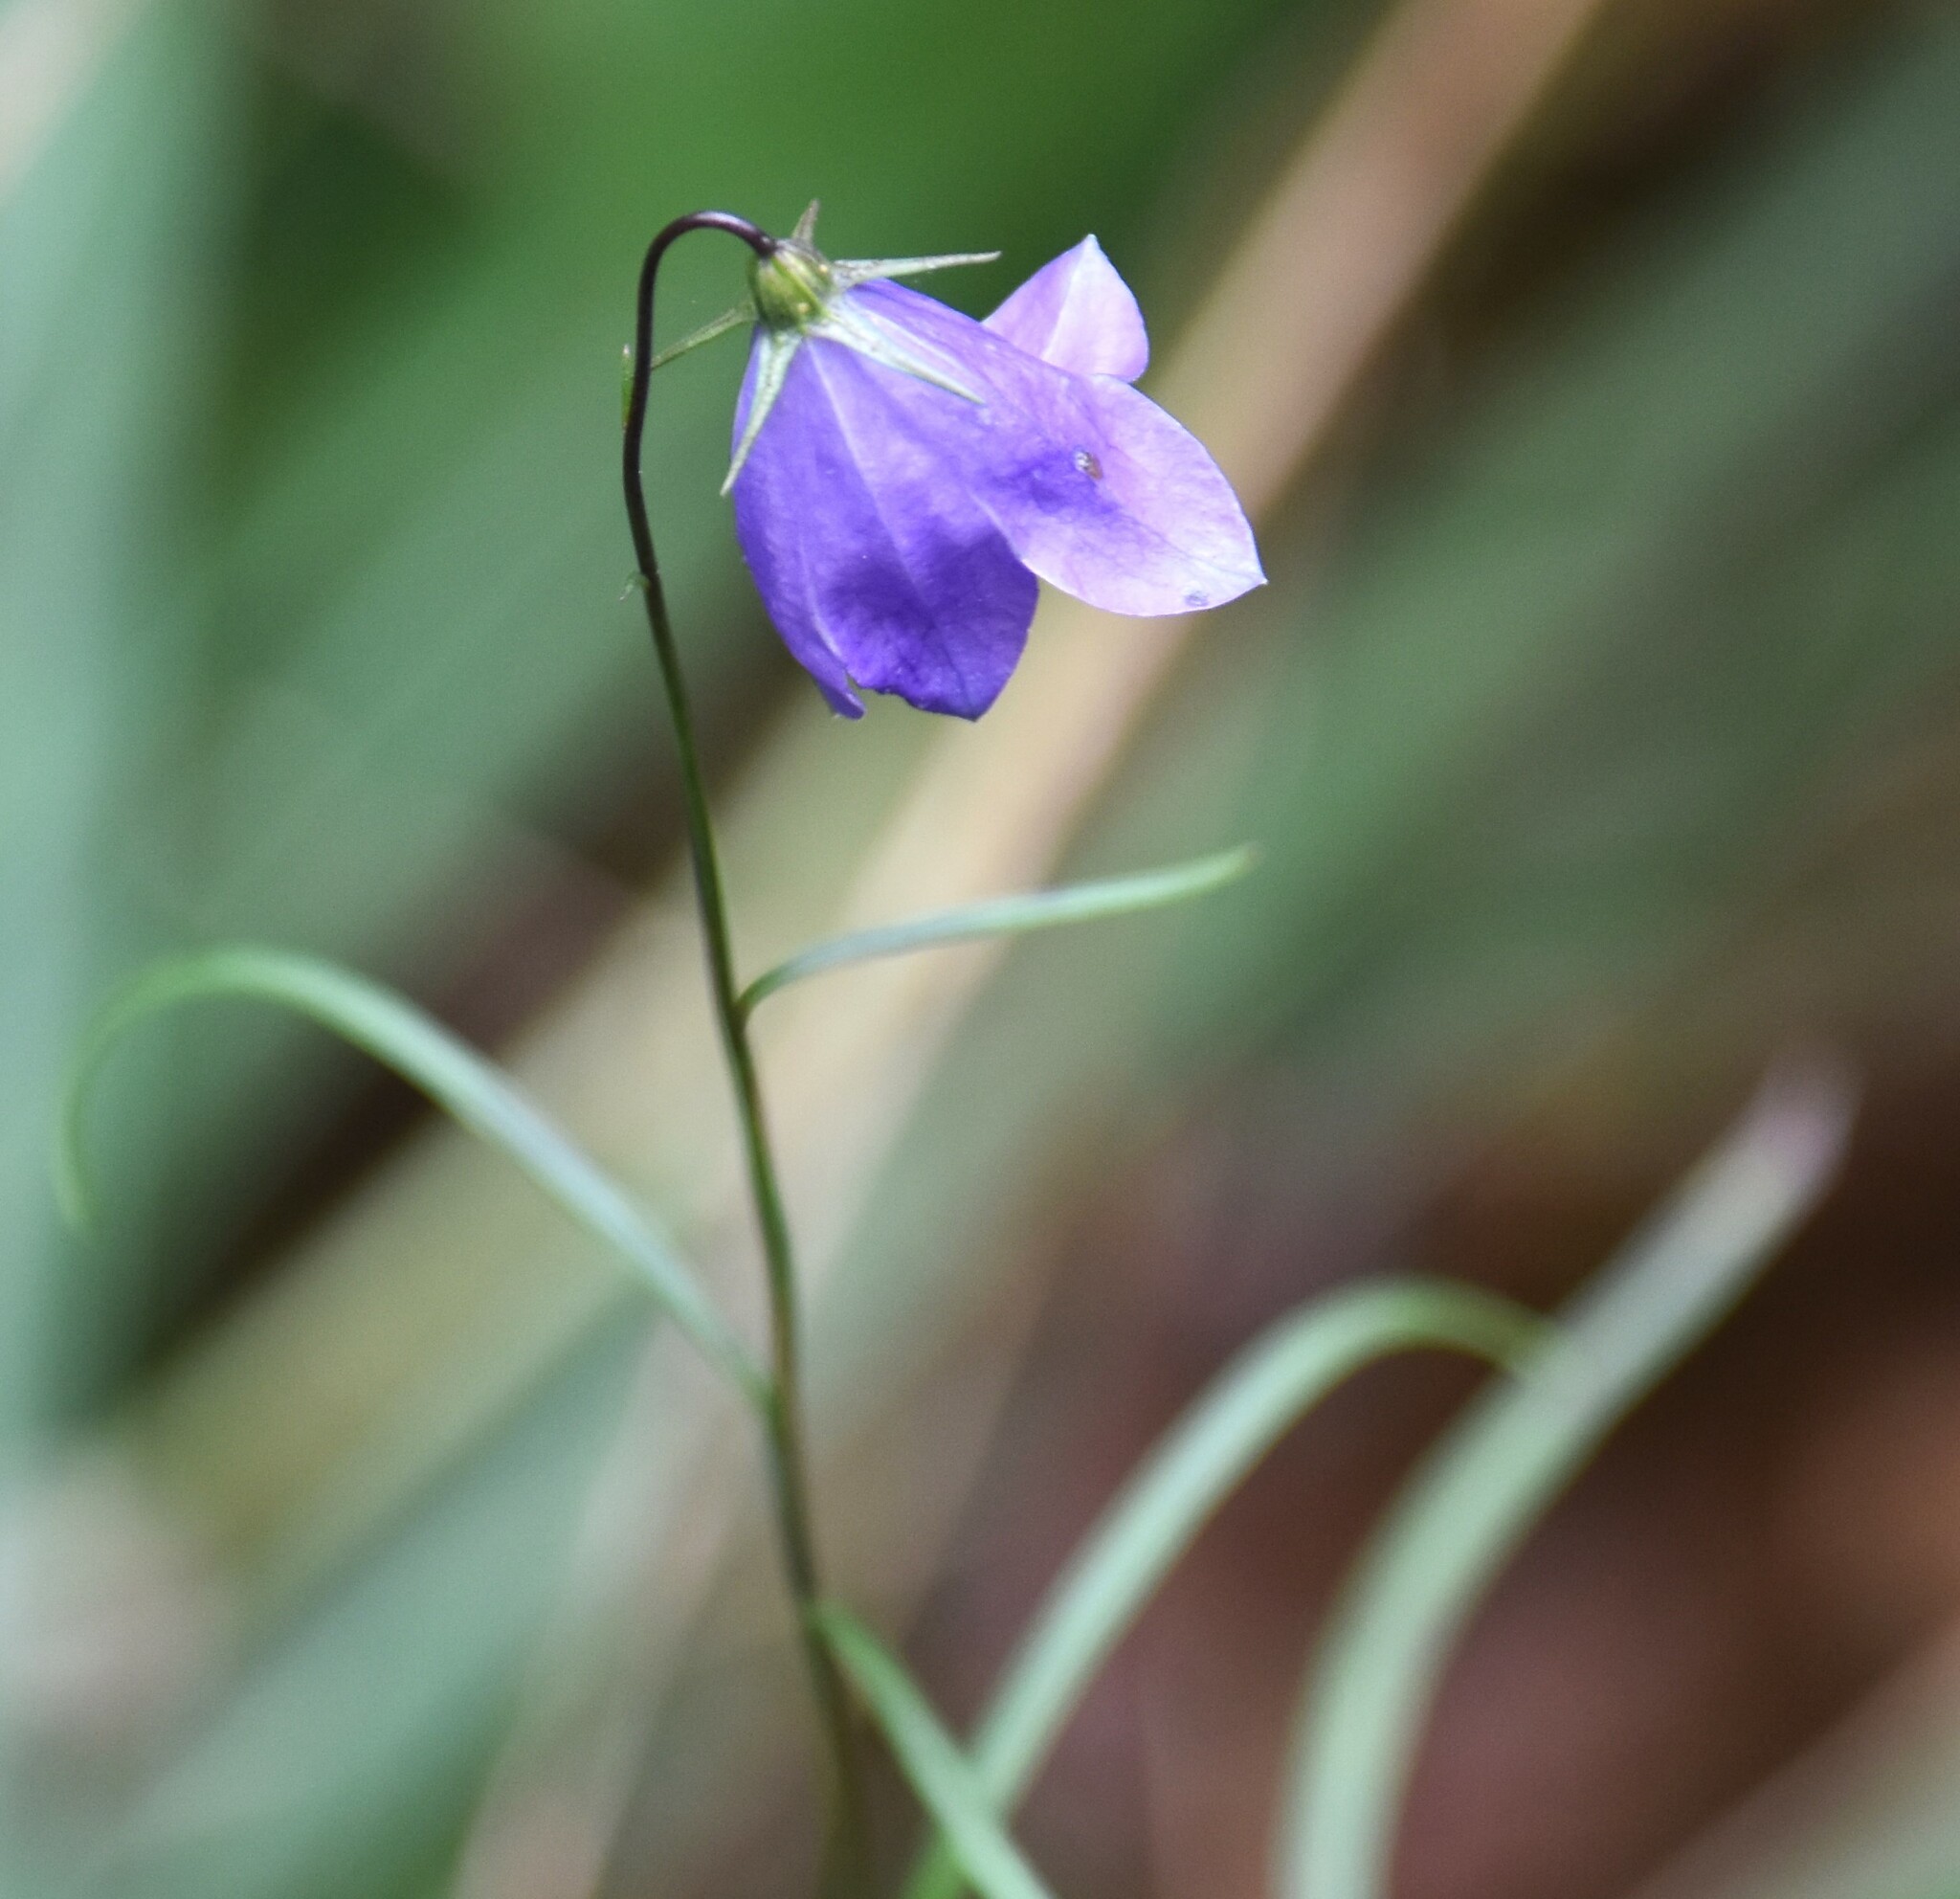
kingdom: Plantae
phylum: Tracheophyta
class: Magnoliopsida
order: Asterales
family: Campanulaceae
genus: Campanula
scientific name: Campanula alaskana
